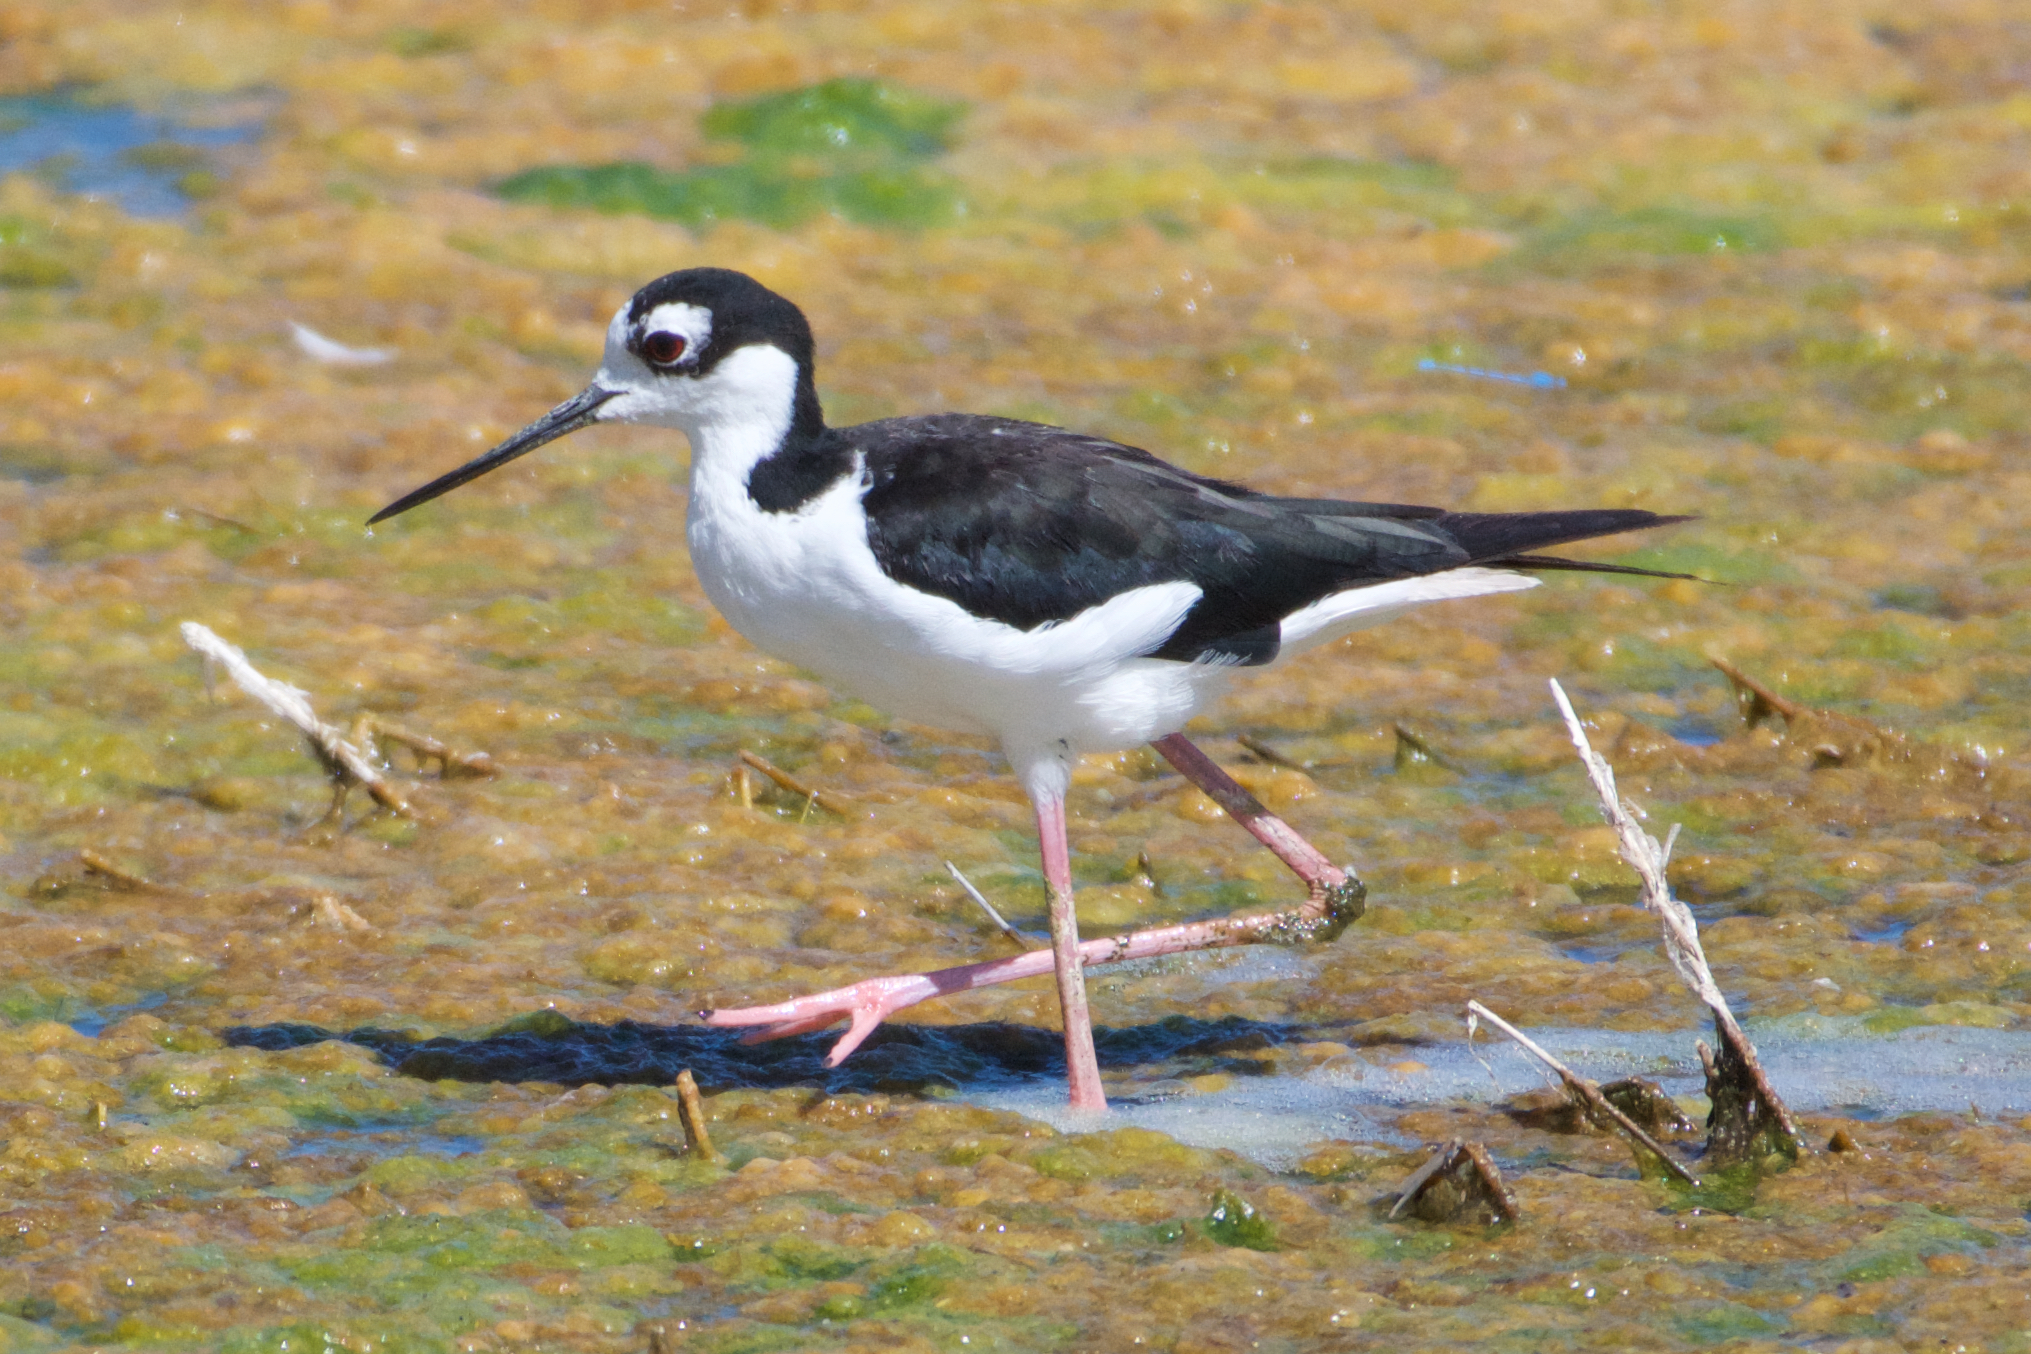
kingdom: Animalia
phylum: Chordata
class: Aves
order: Charadriiformes
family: Recurvirostridae
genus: Himantopus
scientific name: Himantopus mexicanus
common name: Black-necked stilt
